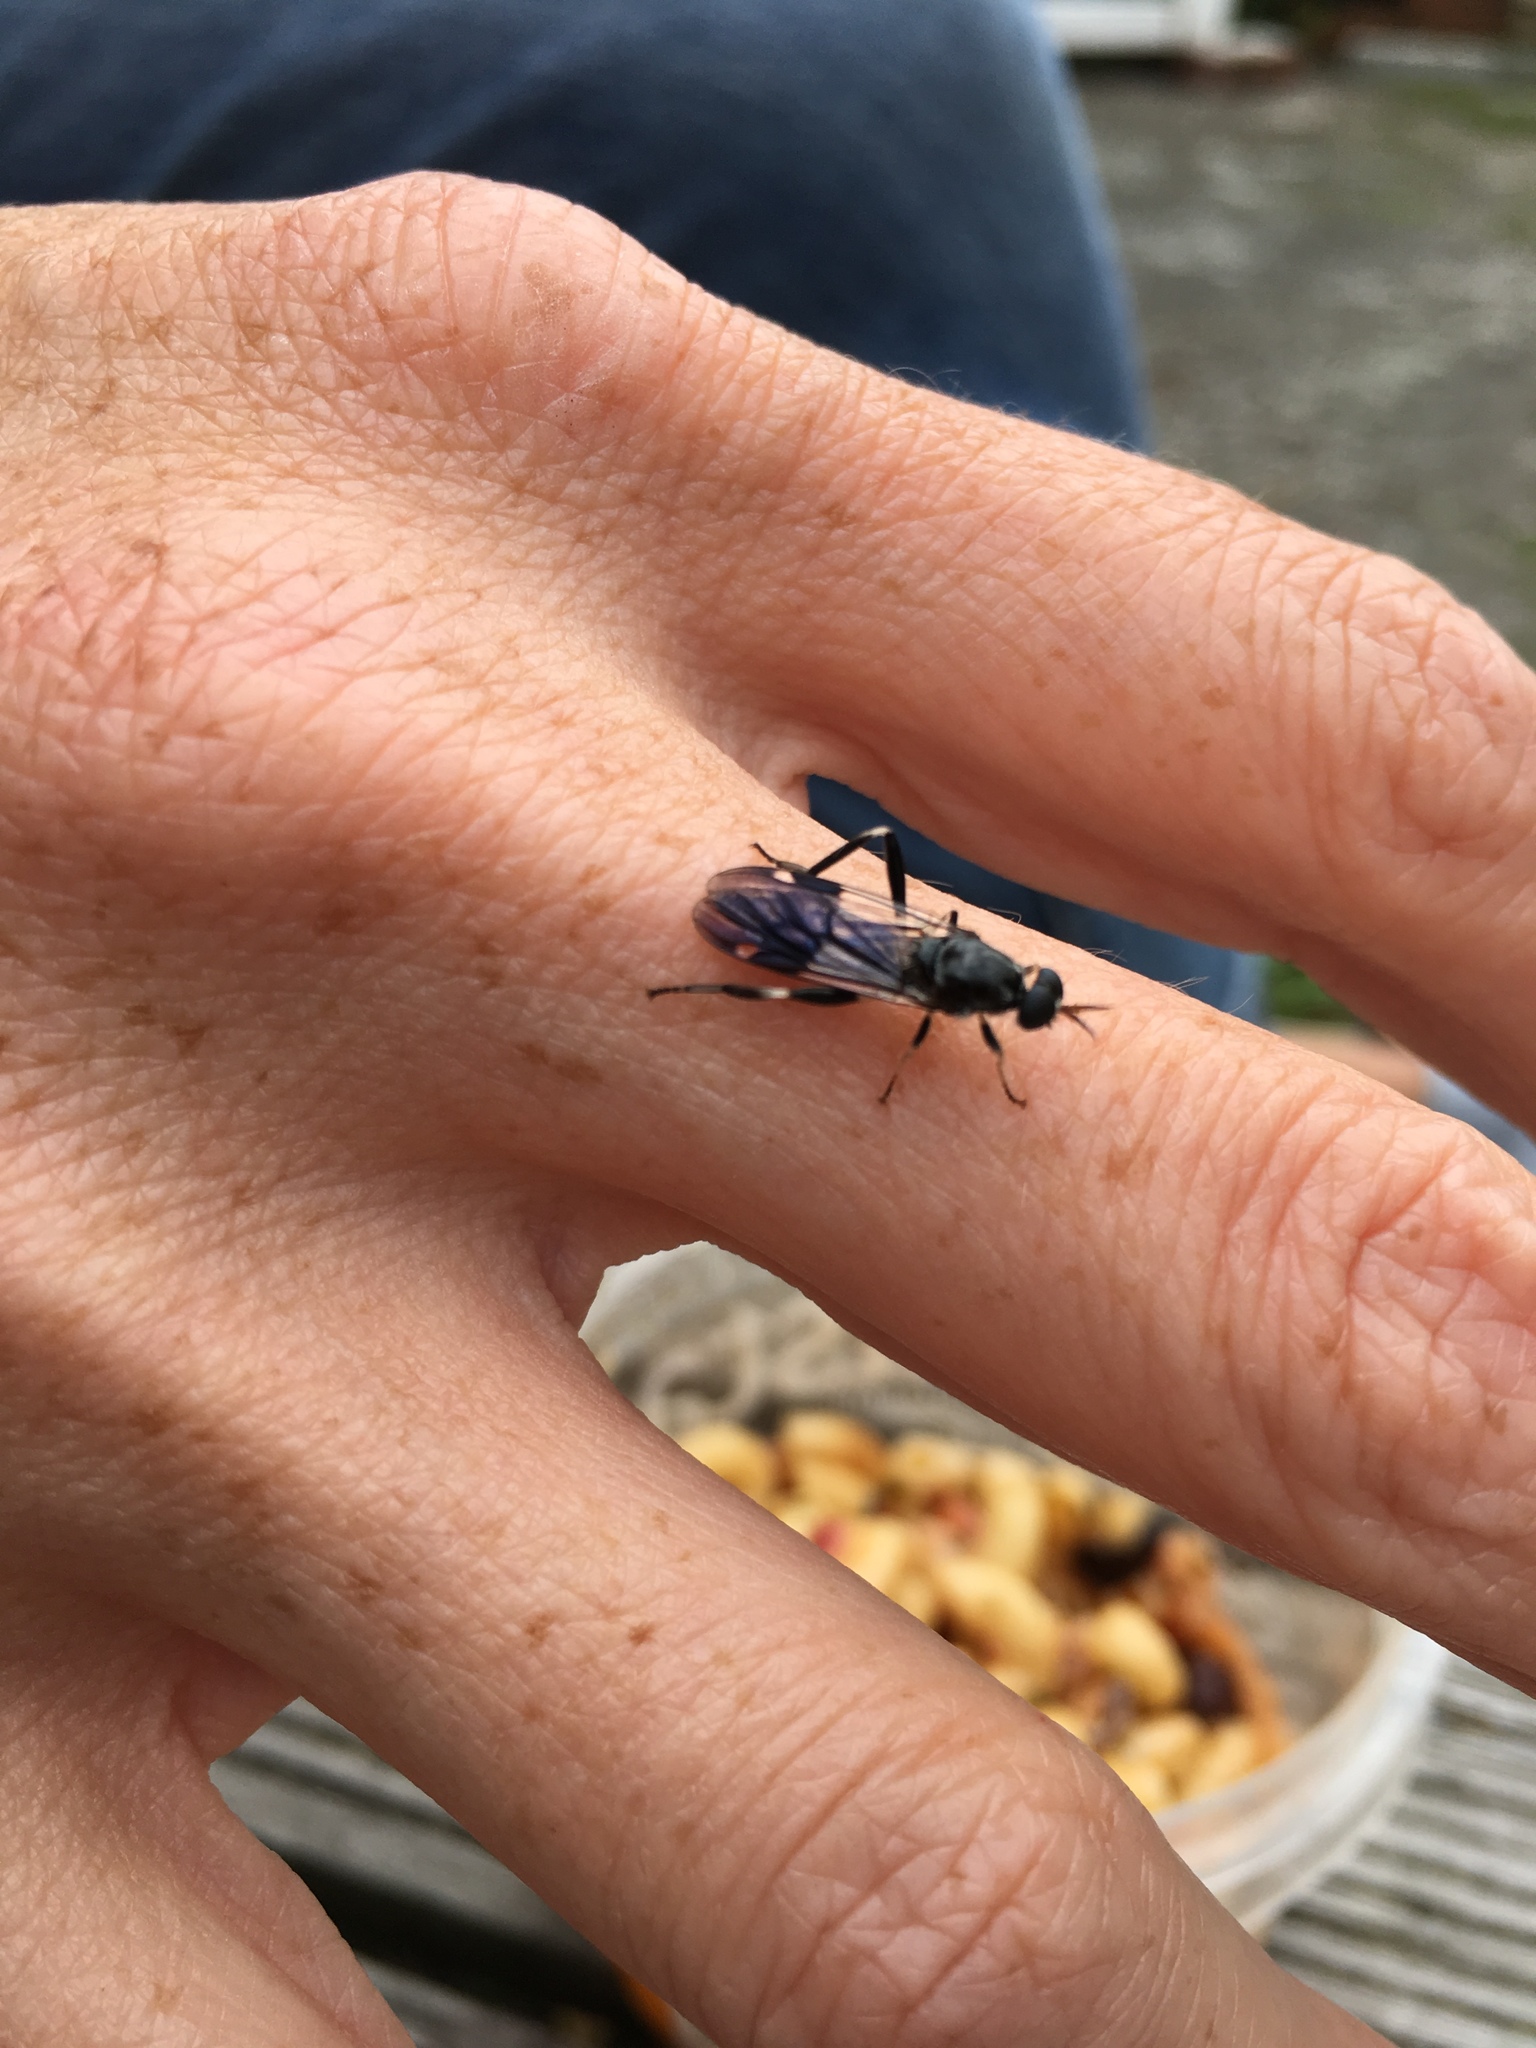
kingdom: Animalia
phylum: Arthropoda
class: Insecta
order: Diptera
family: Stratiomyidae
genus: Exaireta
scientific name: Exaireta spinigera
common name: Blue soldier fly
